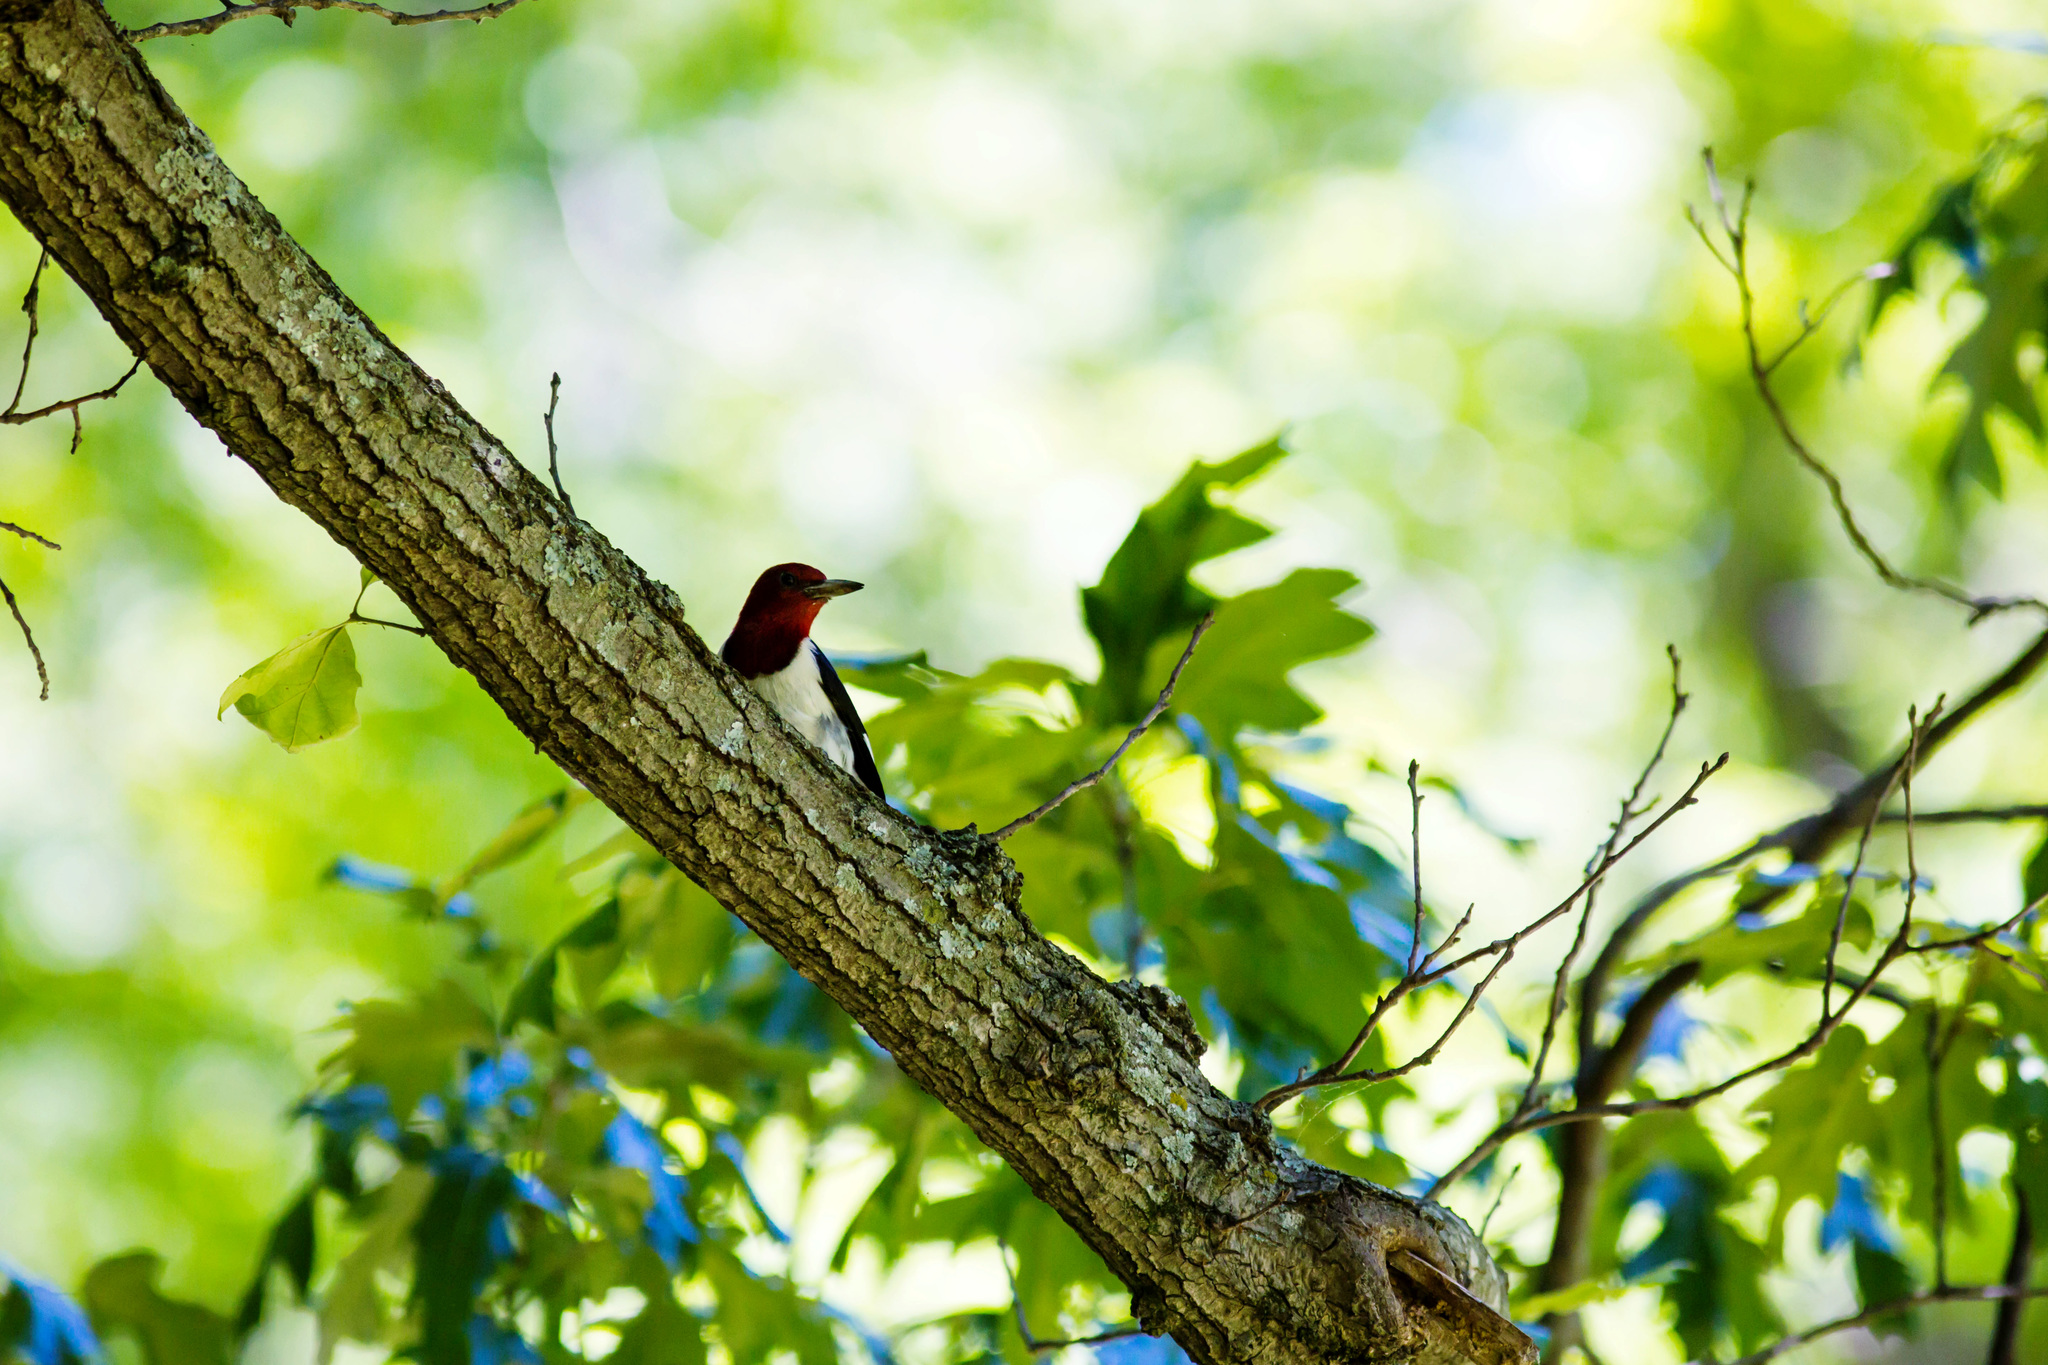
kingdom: Animalia
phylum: Chordata
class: Aves
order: Piciformes
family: Picidae
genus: Melanerpes
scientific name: Melanerpes erythrocephalus
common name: Red-headed woodpecker
